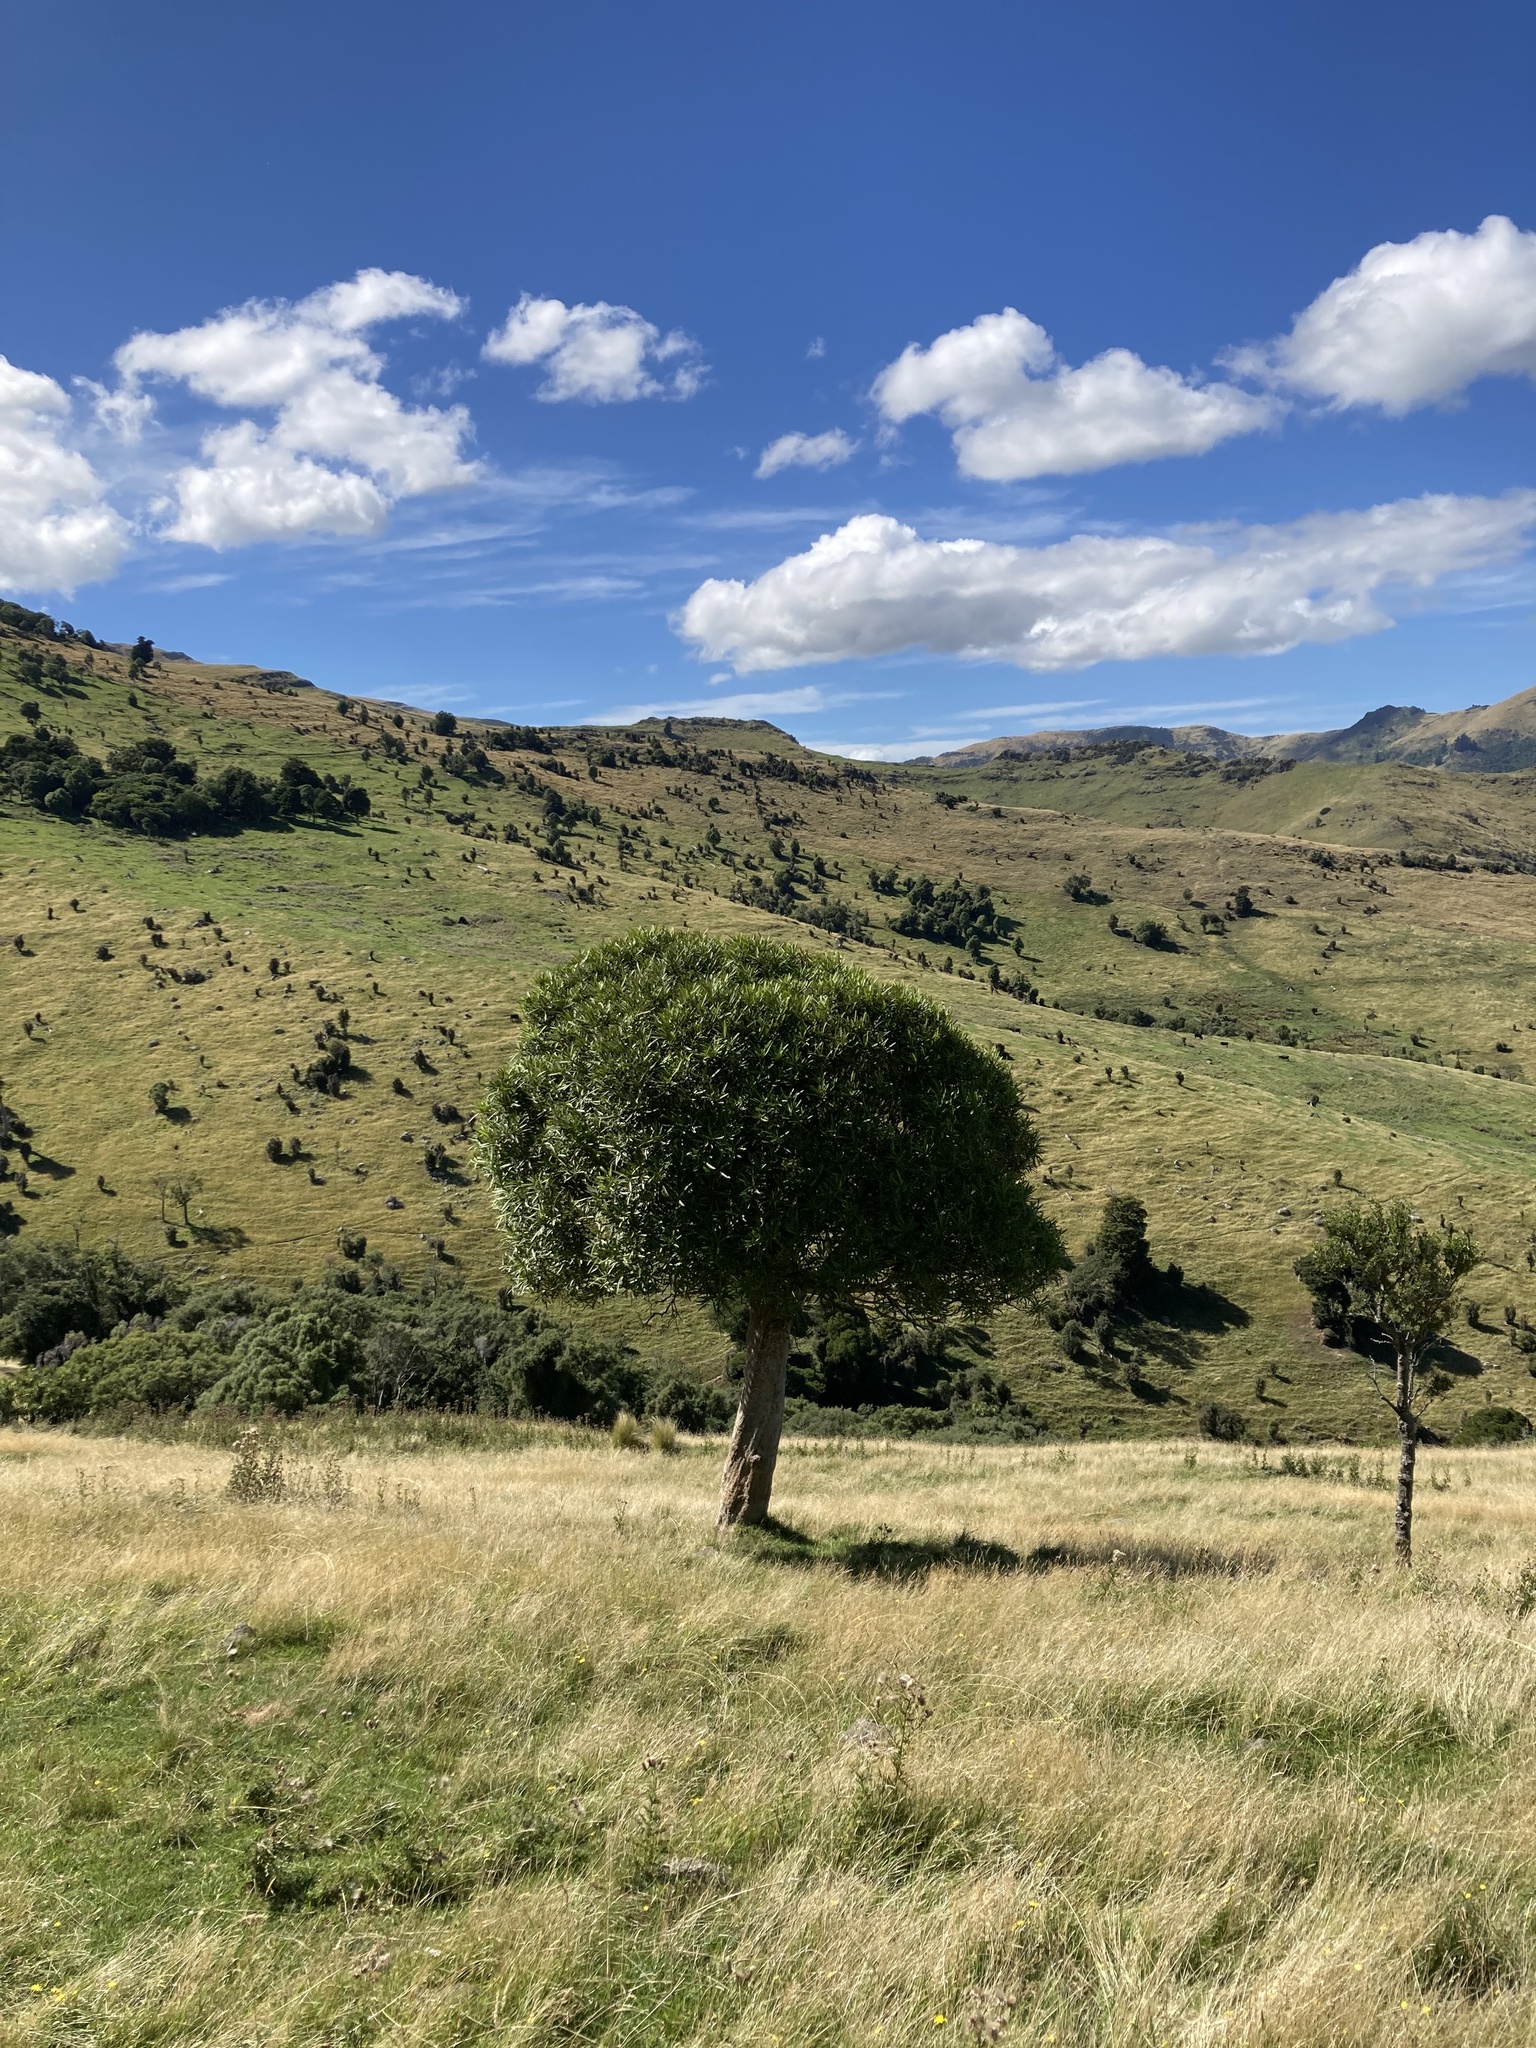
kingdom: Plantae
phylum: Tracheophyta
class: Magnoliopsida
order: Apiales
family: Araliaceae
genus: Pseudopanax
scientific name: Pseudopanax crassifolius
